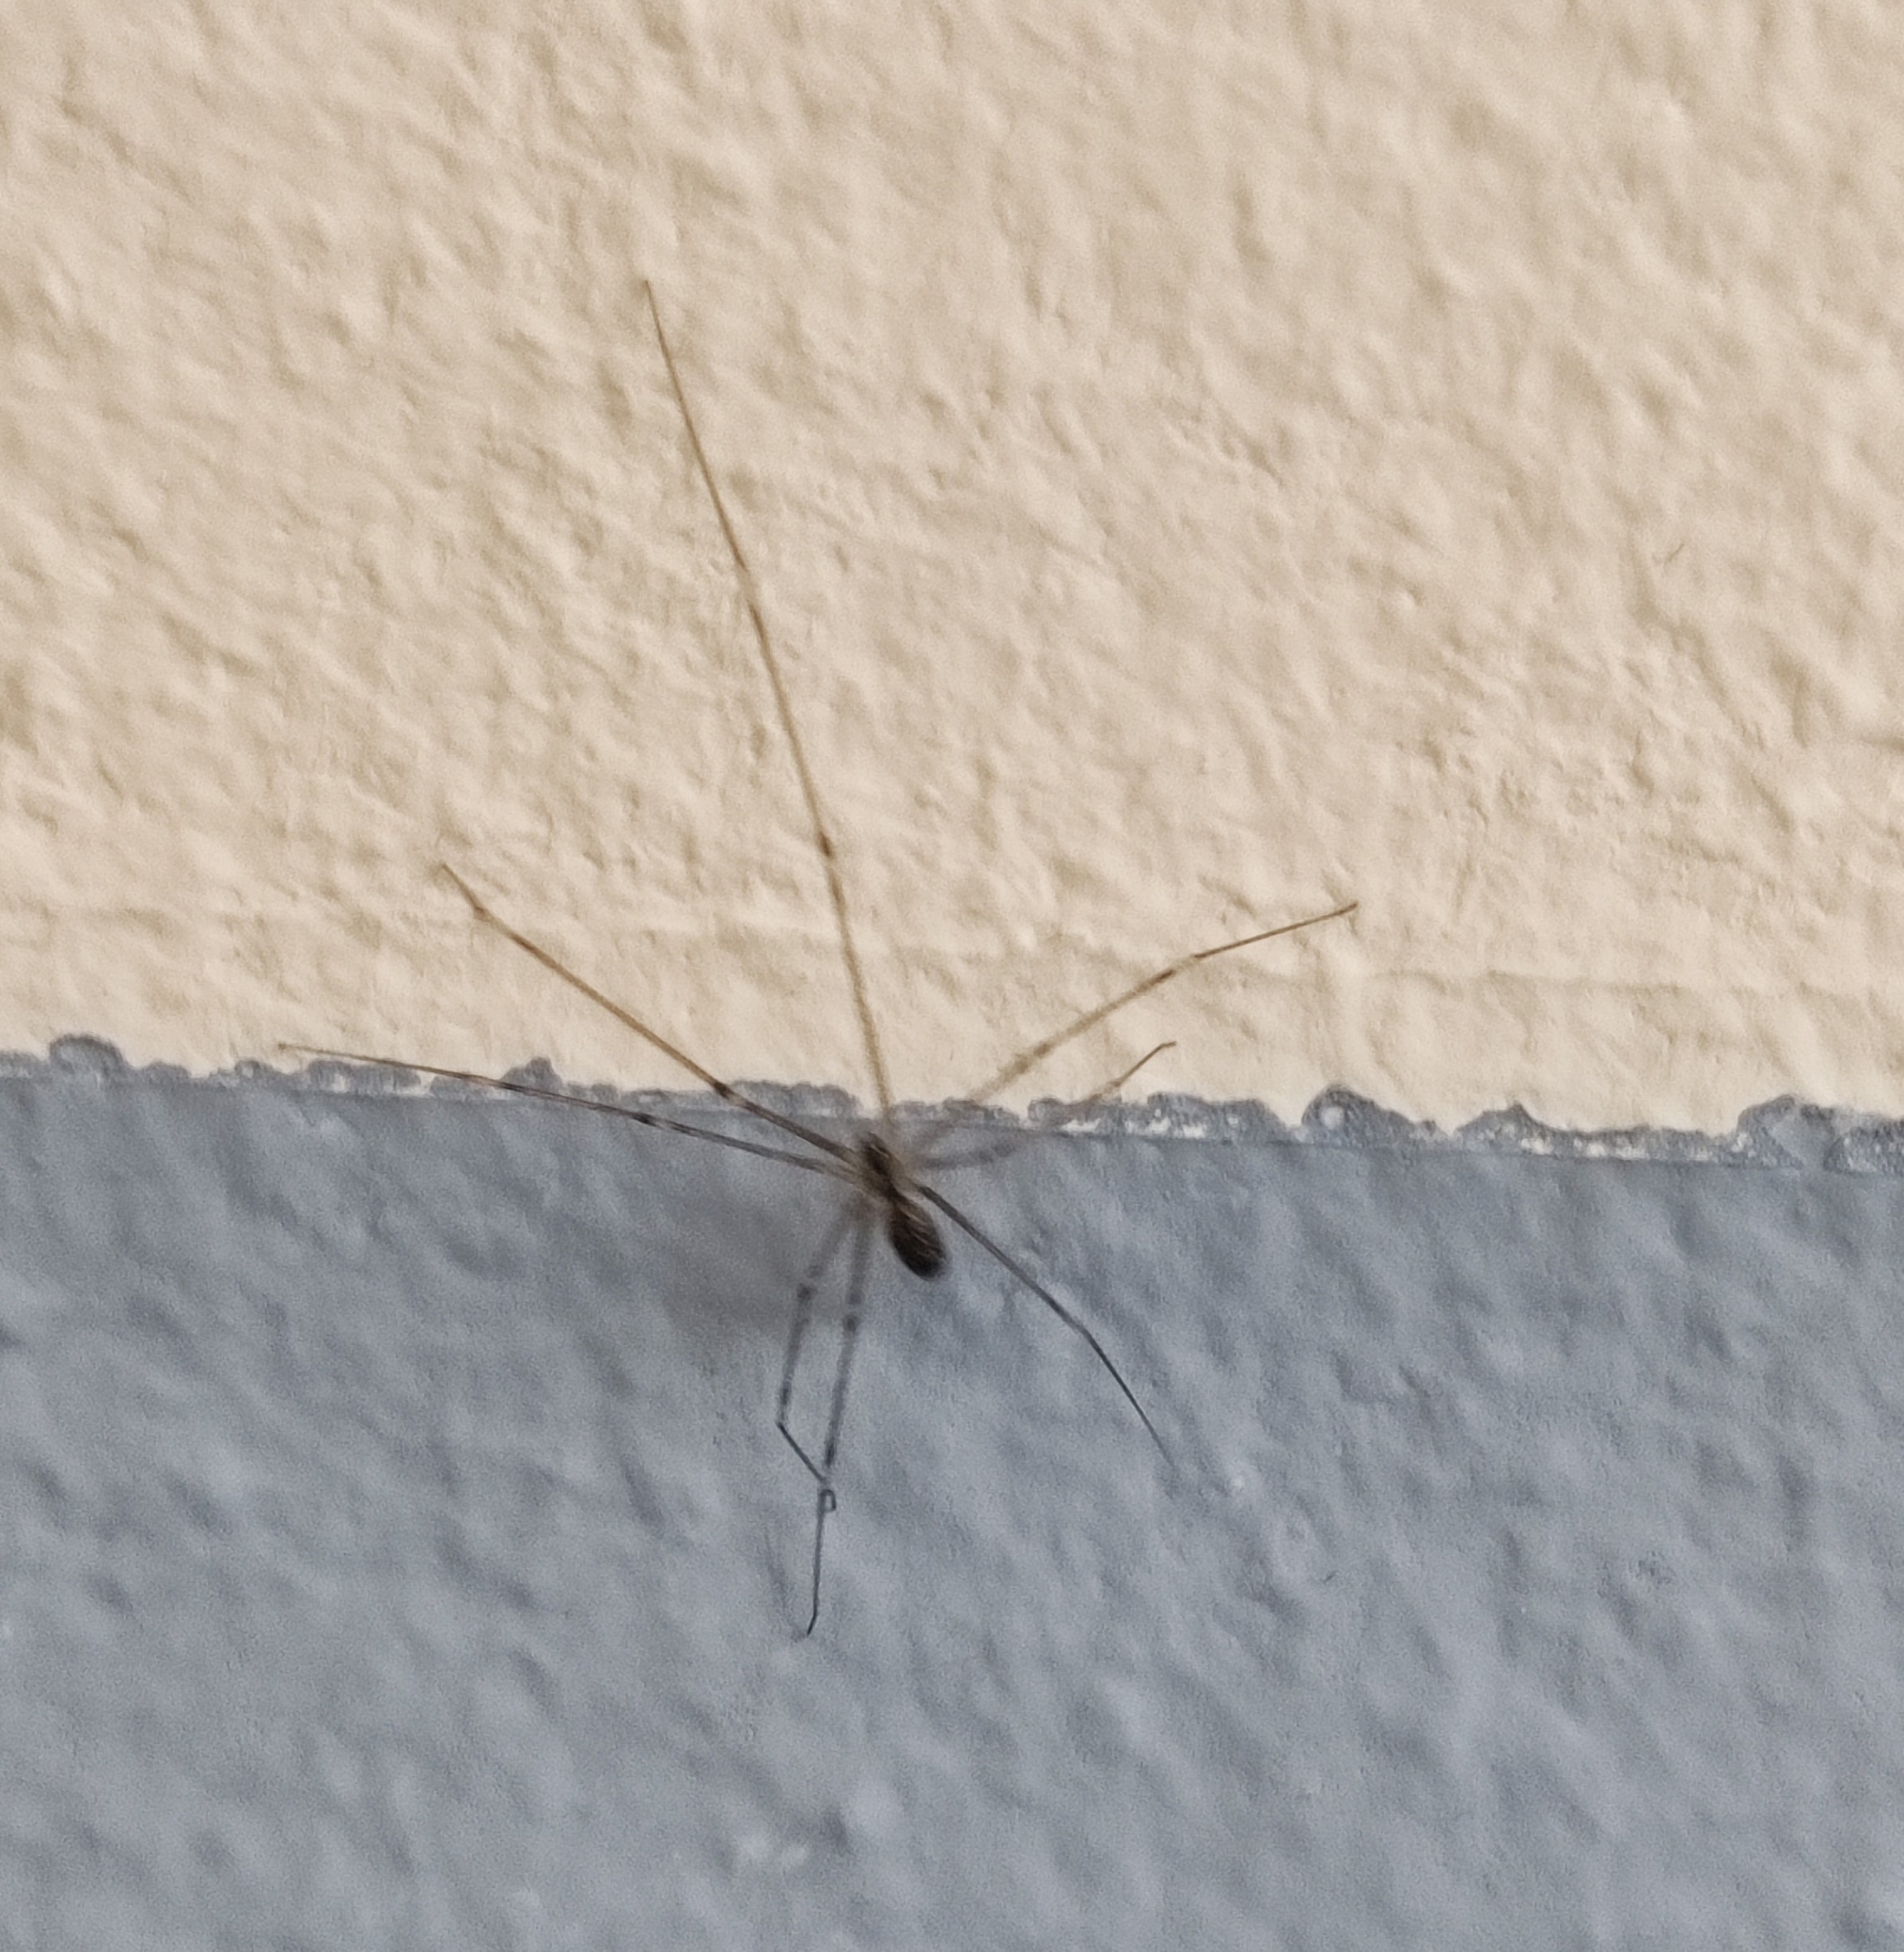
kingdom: Animalia
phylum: Arthropoda
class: Arachnida
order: Araneae
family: Pholcidae
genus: Holocnemus
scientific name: Holocnemus pluchei
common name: Marbled cellar spider
